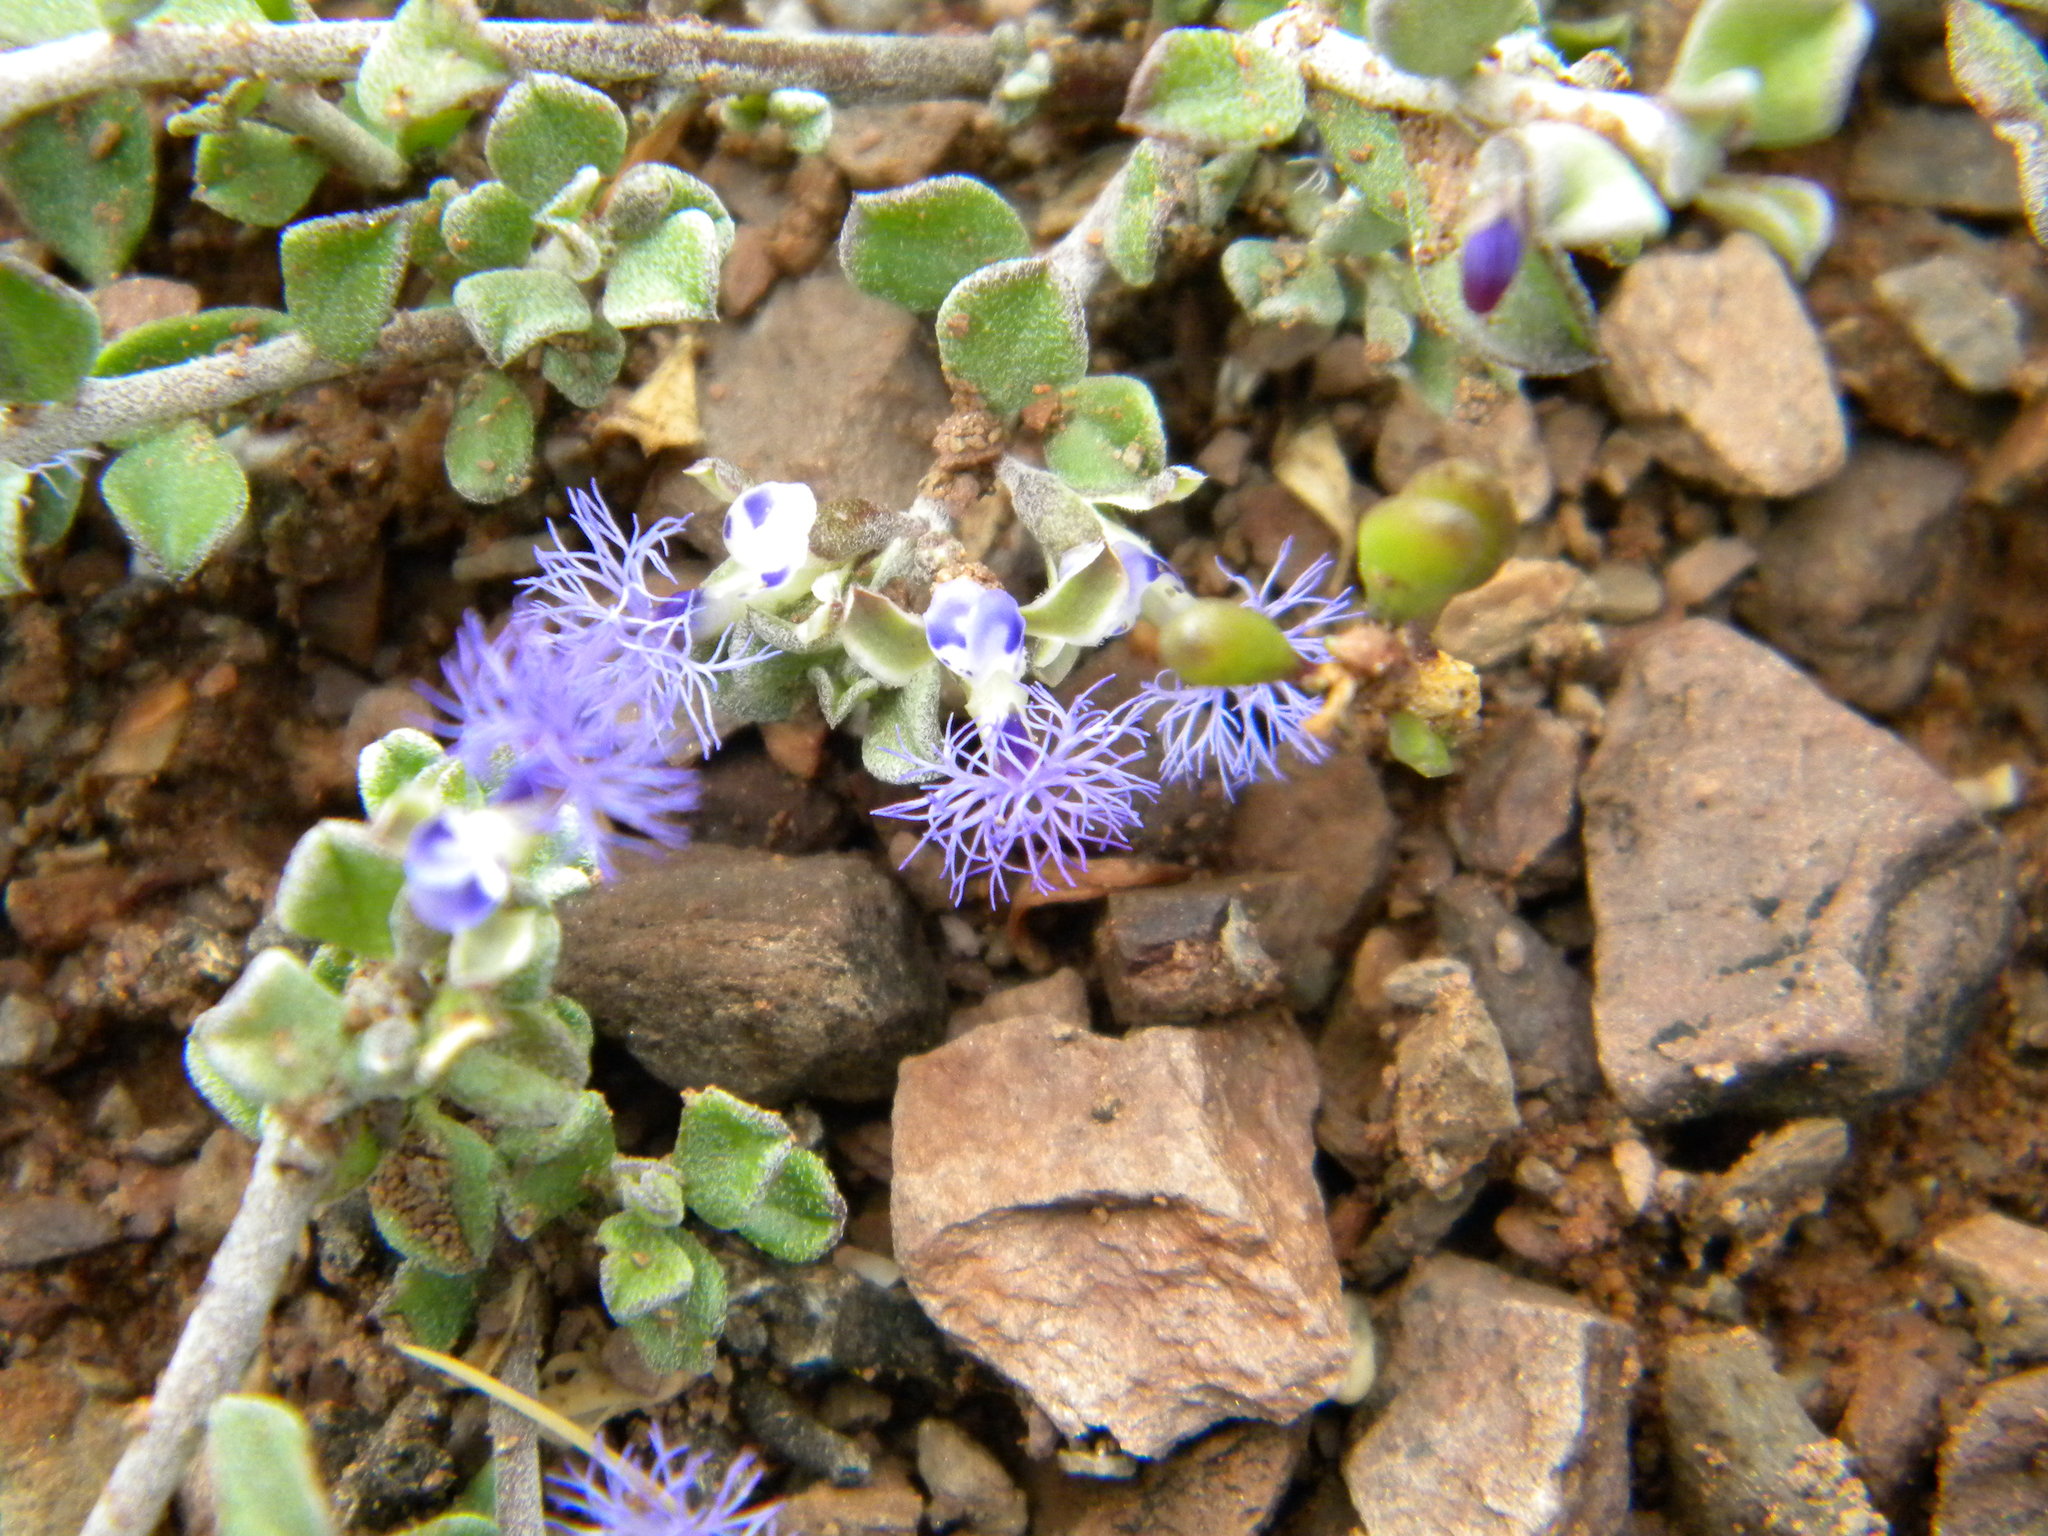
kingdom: Plantae
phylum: Tracheophyta
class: Magnoliopsida
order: Fabales
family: Polygalaceae
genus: Polygala
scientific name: Polygala asbestina
